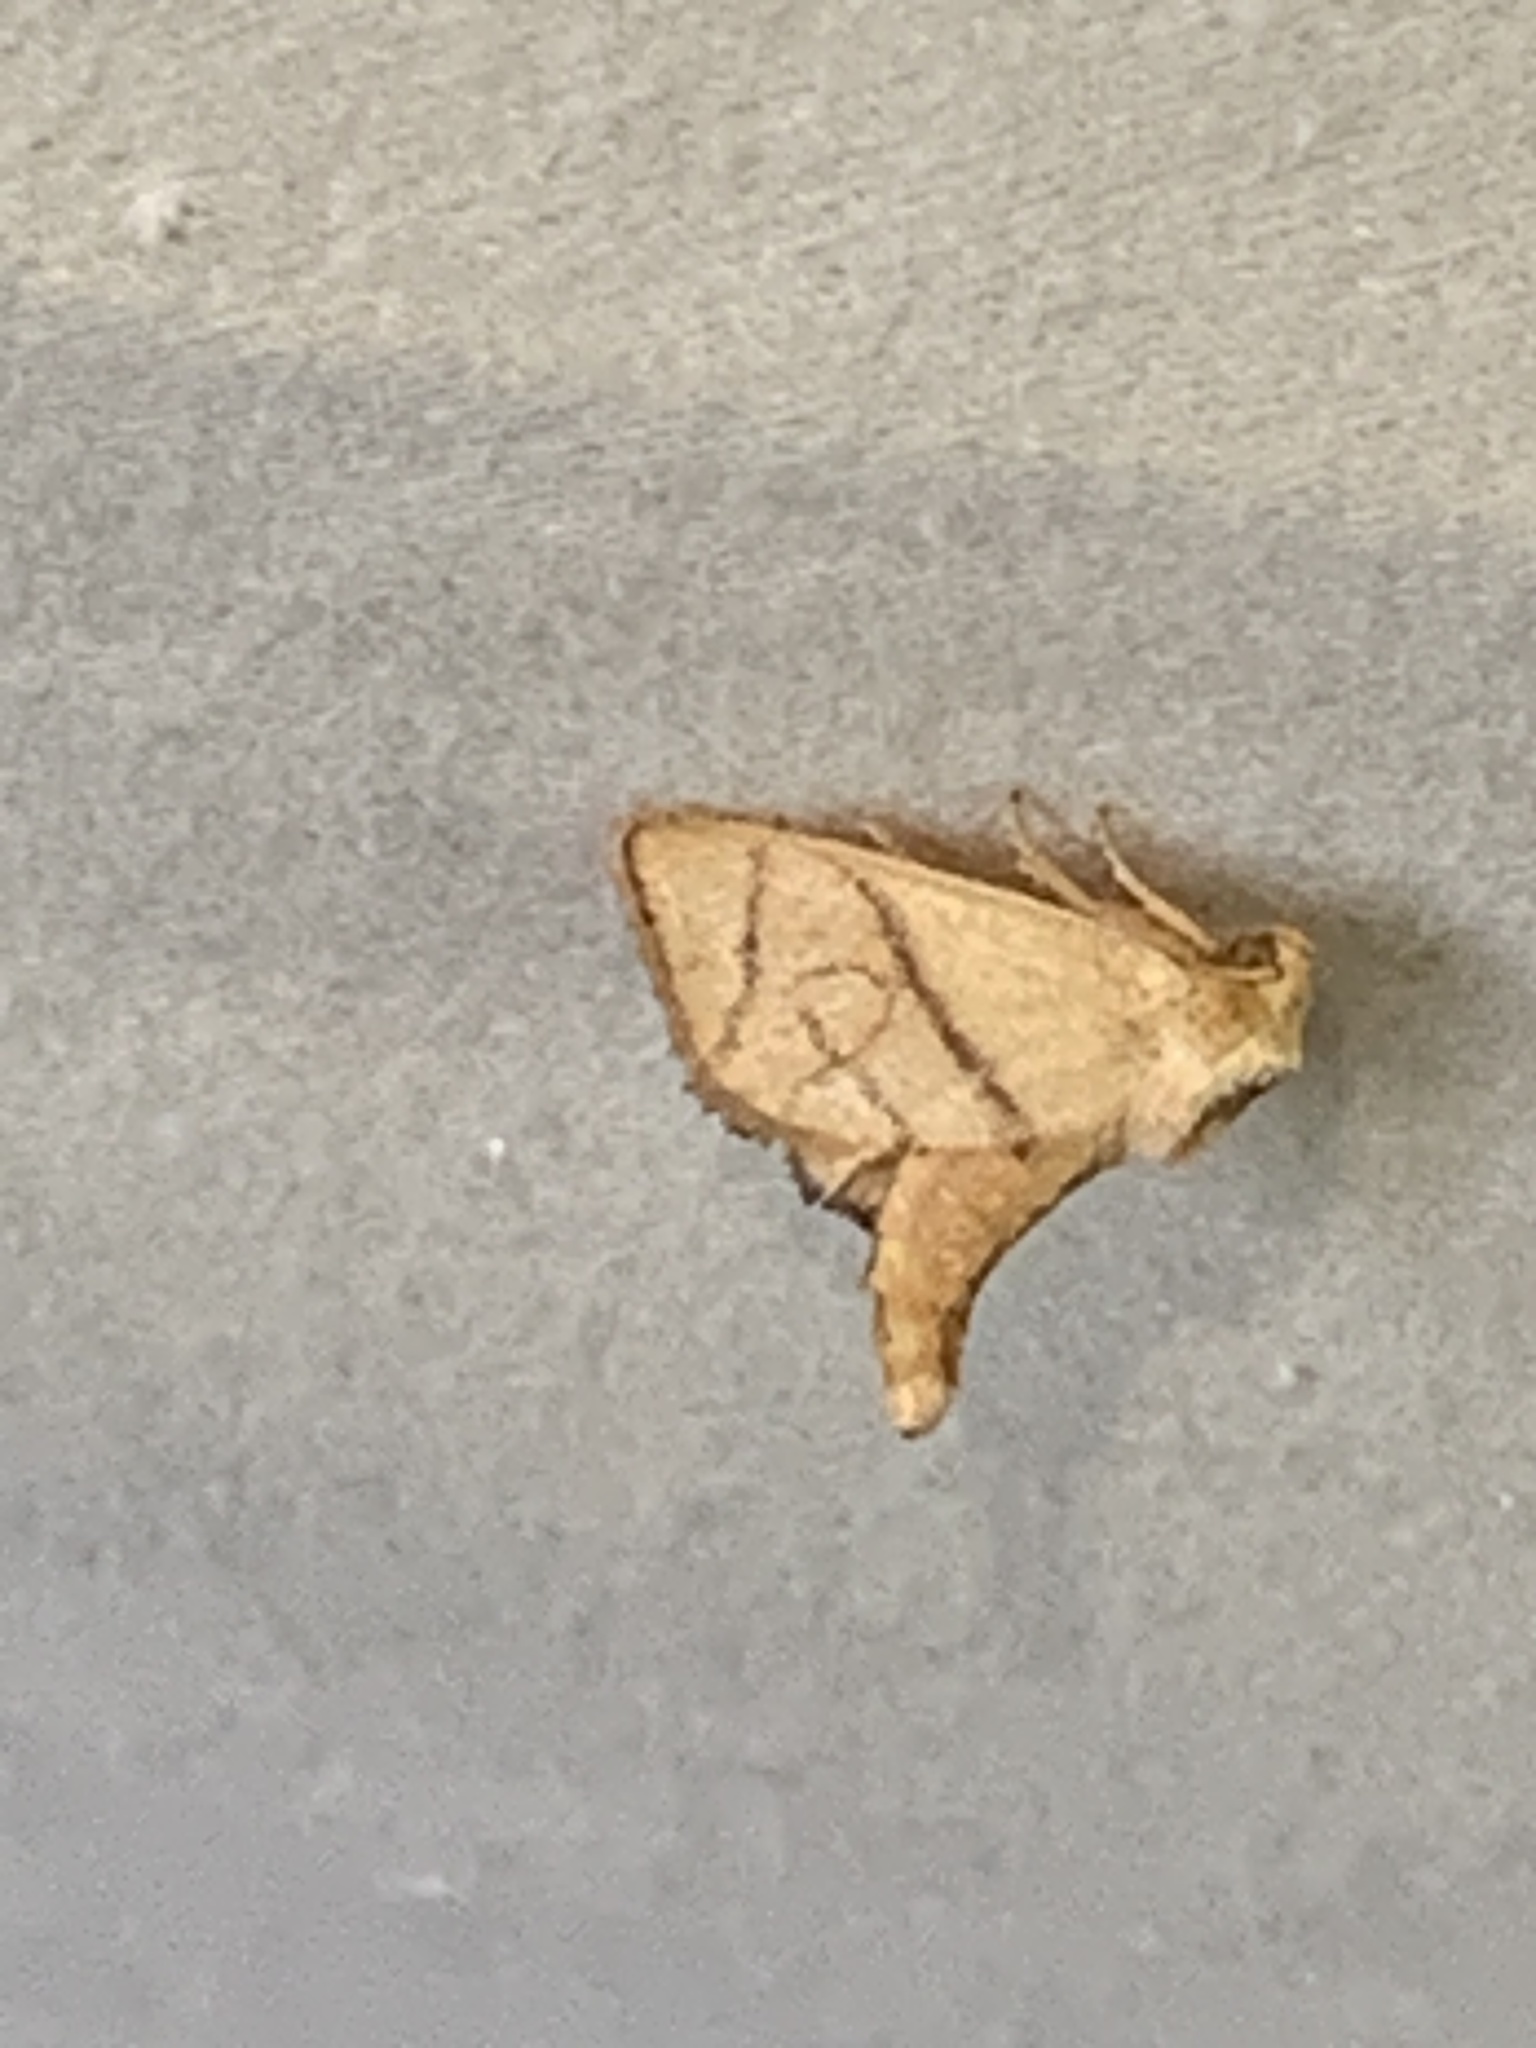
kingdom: Animalia
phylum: Arthropoda
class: Insecta
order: Lepidoptera
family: Limacodidae
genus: Apoda
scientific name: Apoda y-inversa
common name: Yellow-collared slug moth
